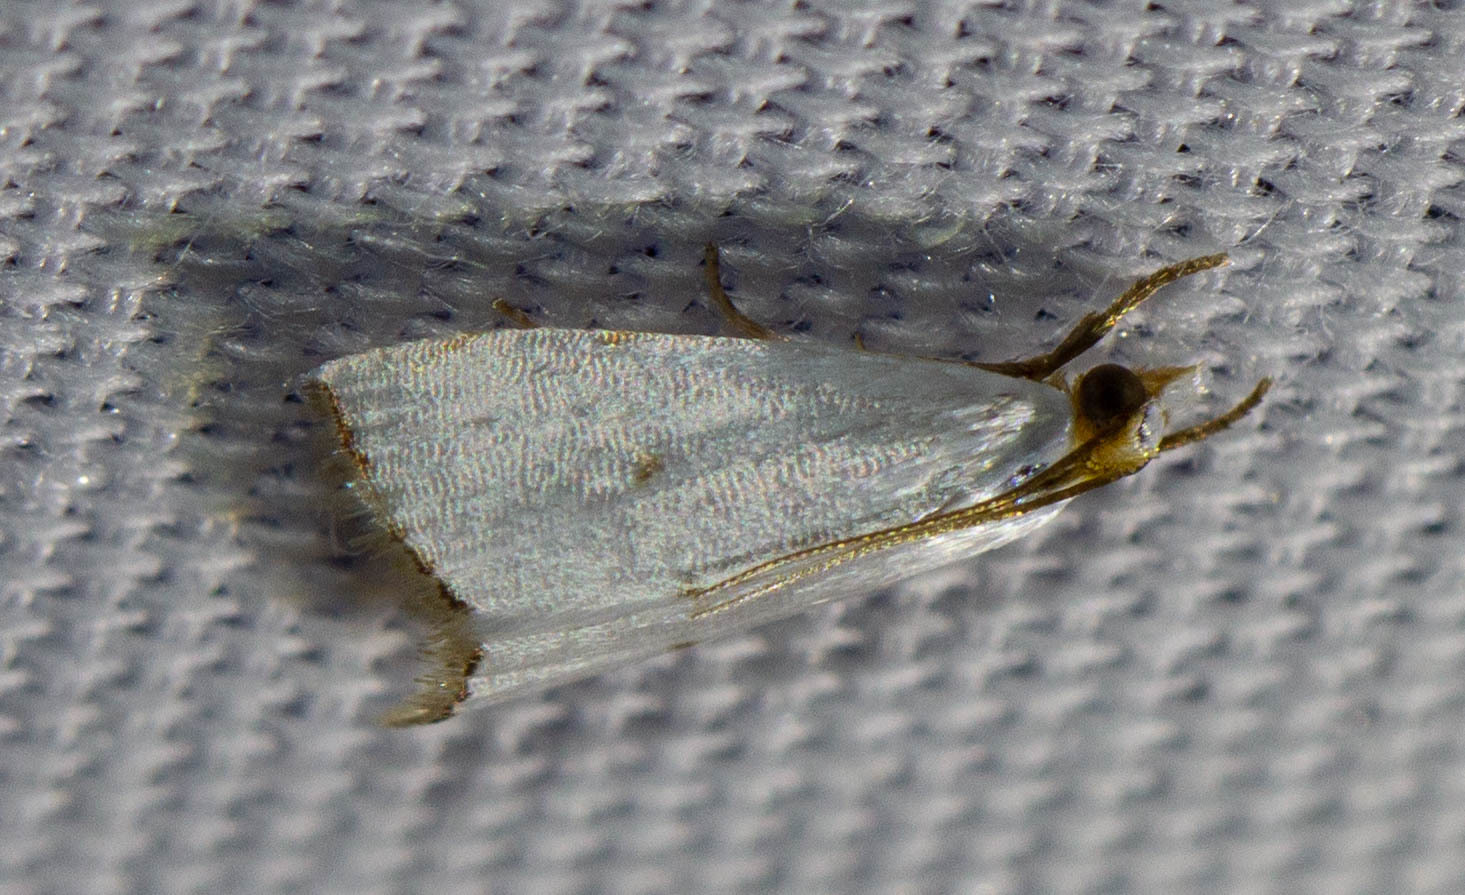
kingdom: Animalia
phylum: Arthropoda
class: Insecta
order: Lepidoptera
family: Crambidae
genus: Argyria
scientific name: Argyria pusillalis
